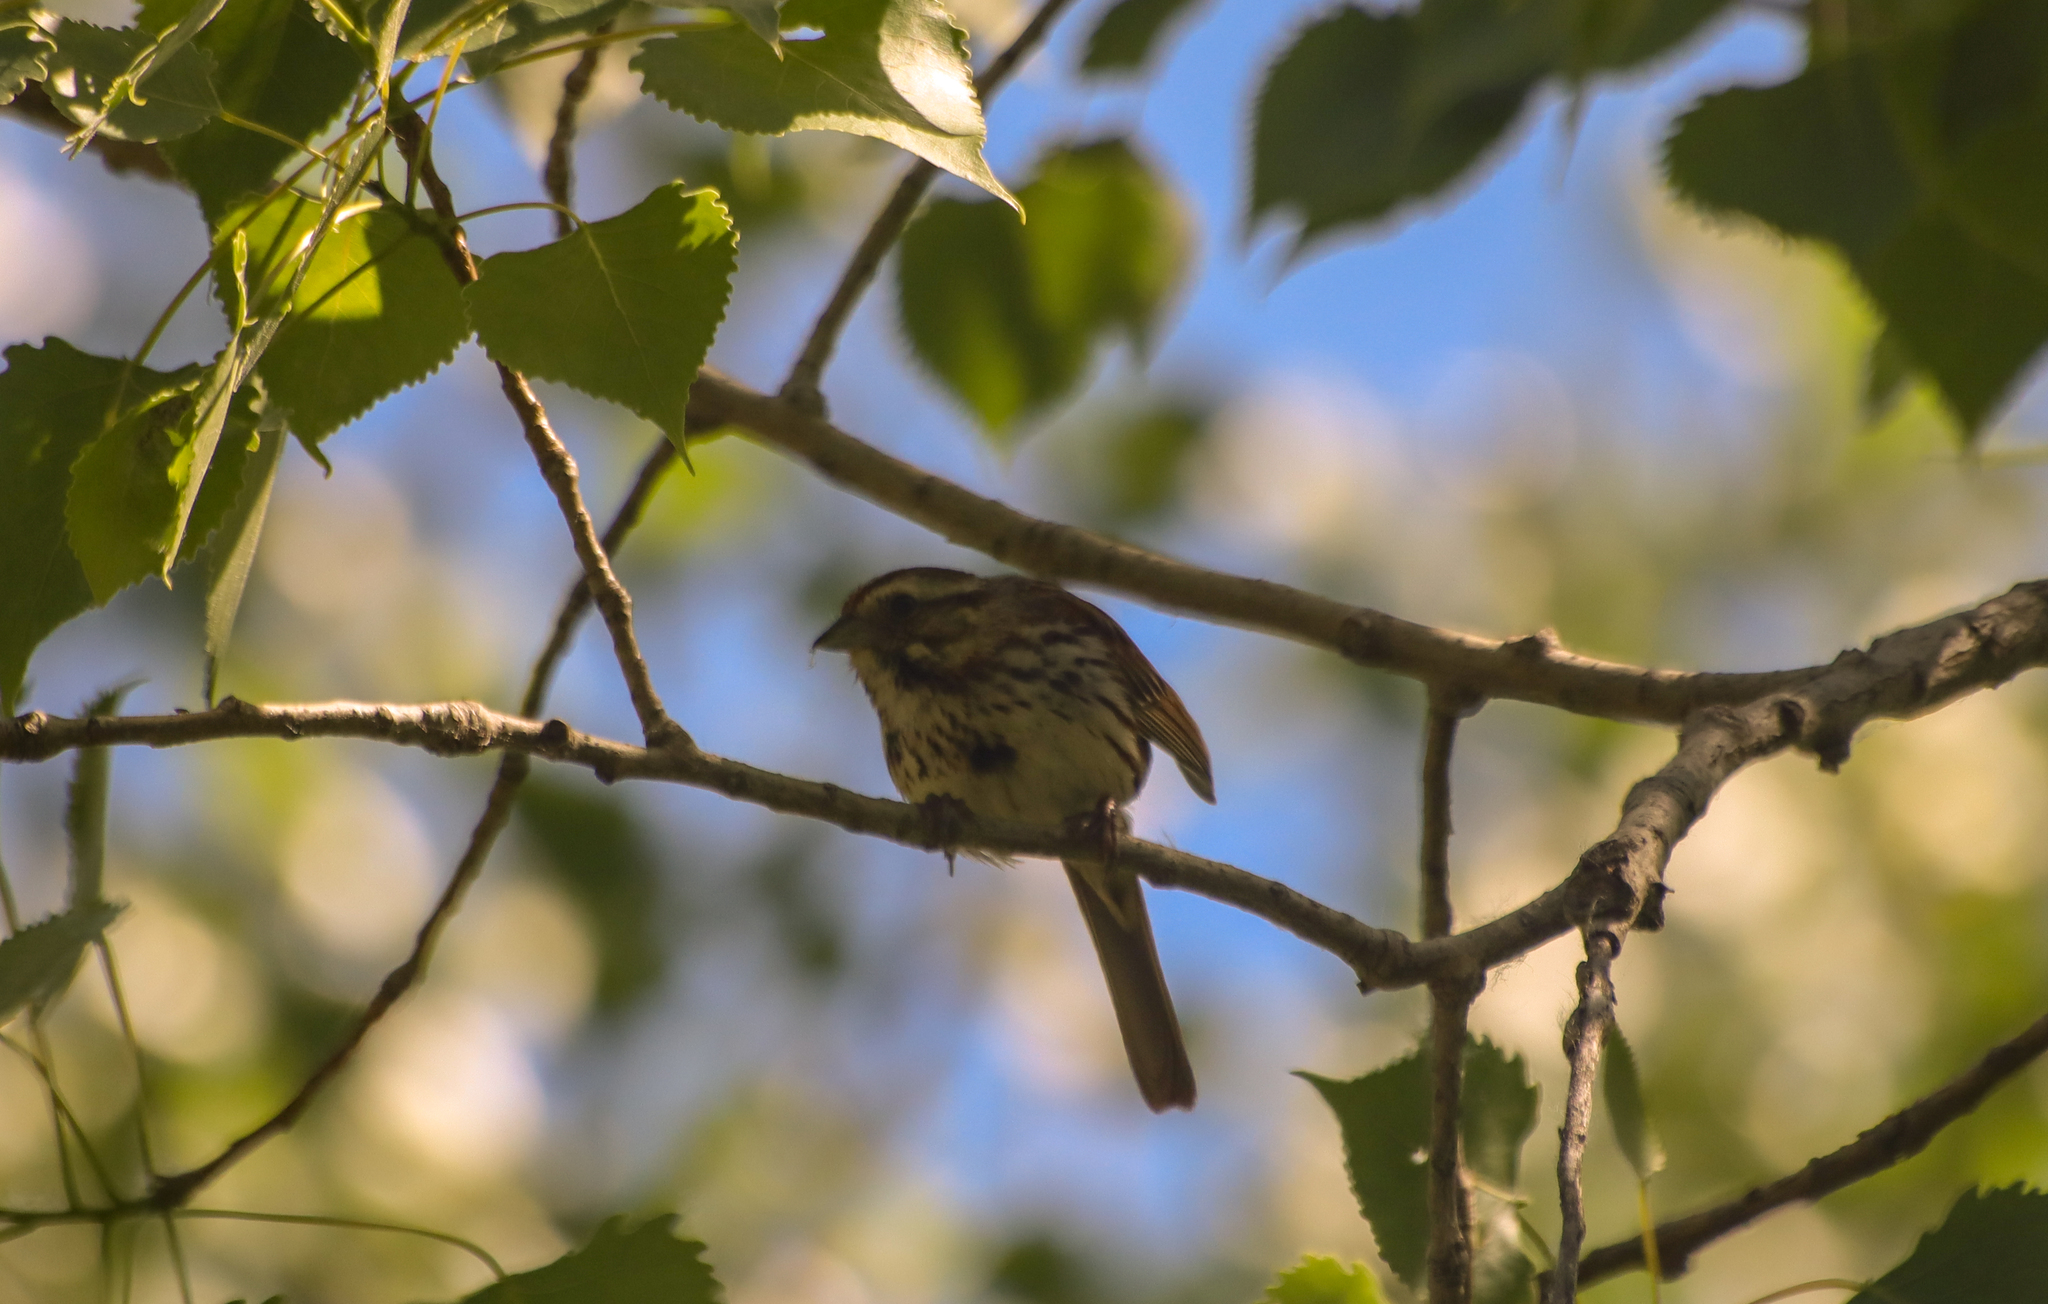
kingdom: Animalia
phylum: Chordata
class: Aves
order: Passeriformes
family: Passerellidae
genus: Melospiza
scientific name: Melospiza melodia
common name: Song sparrow
